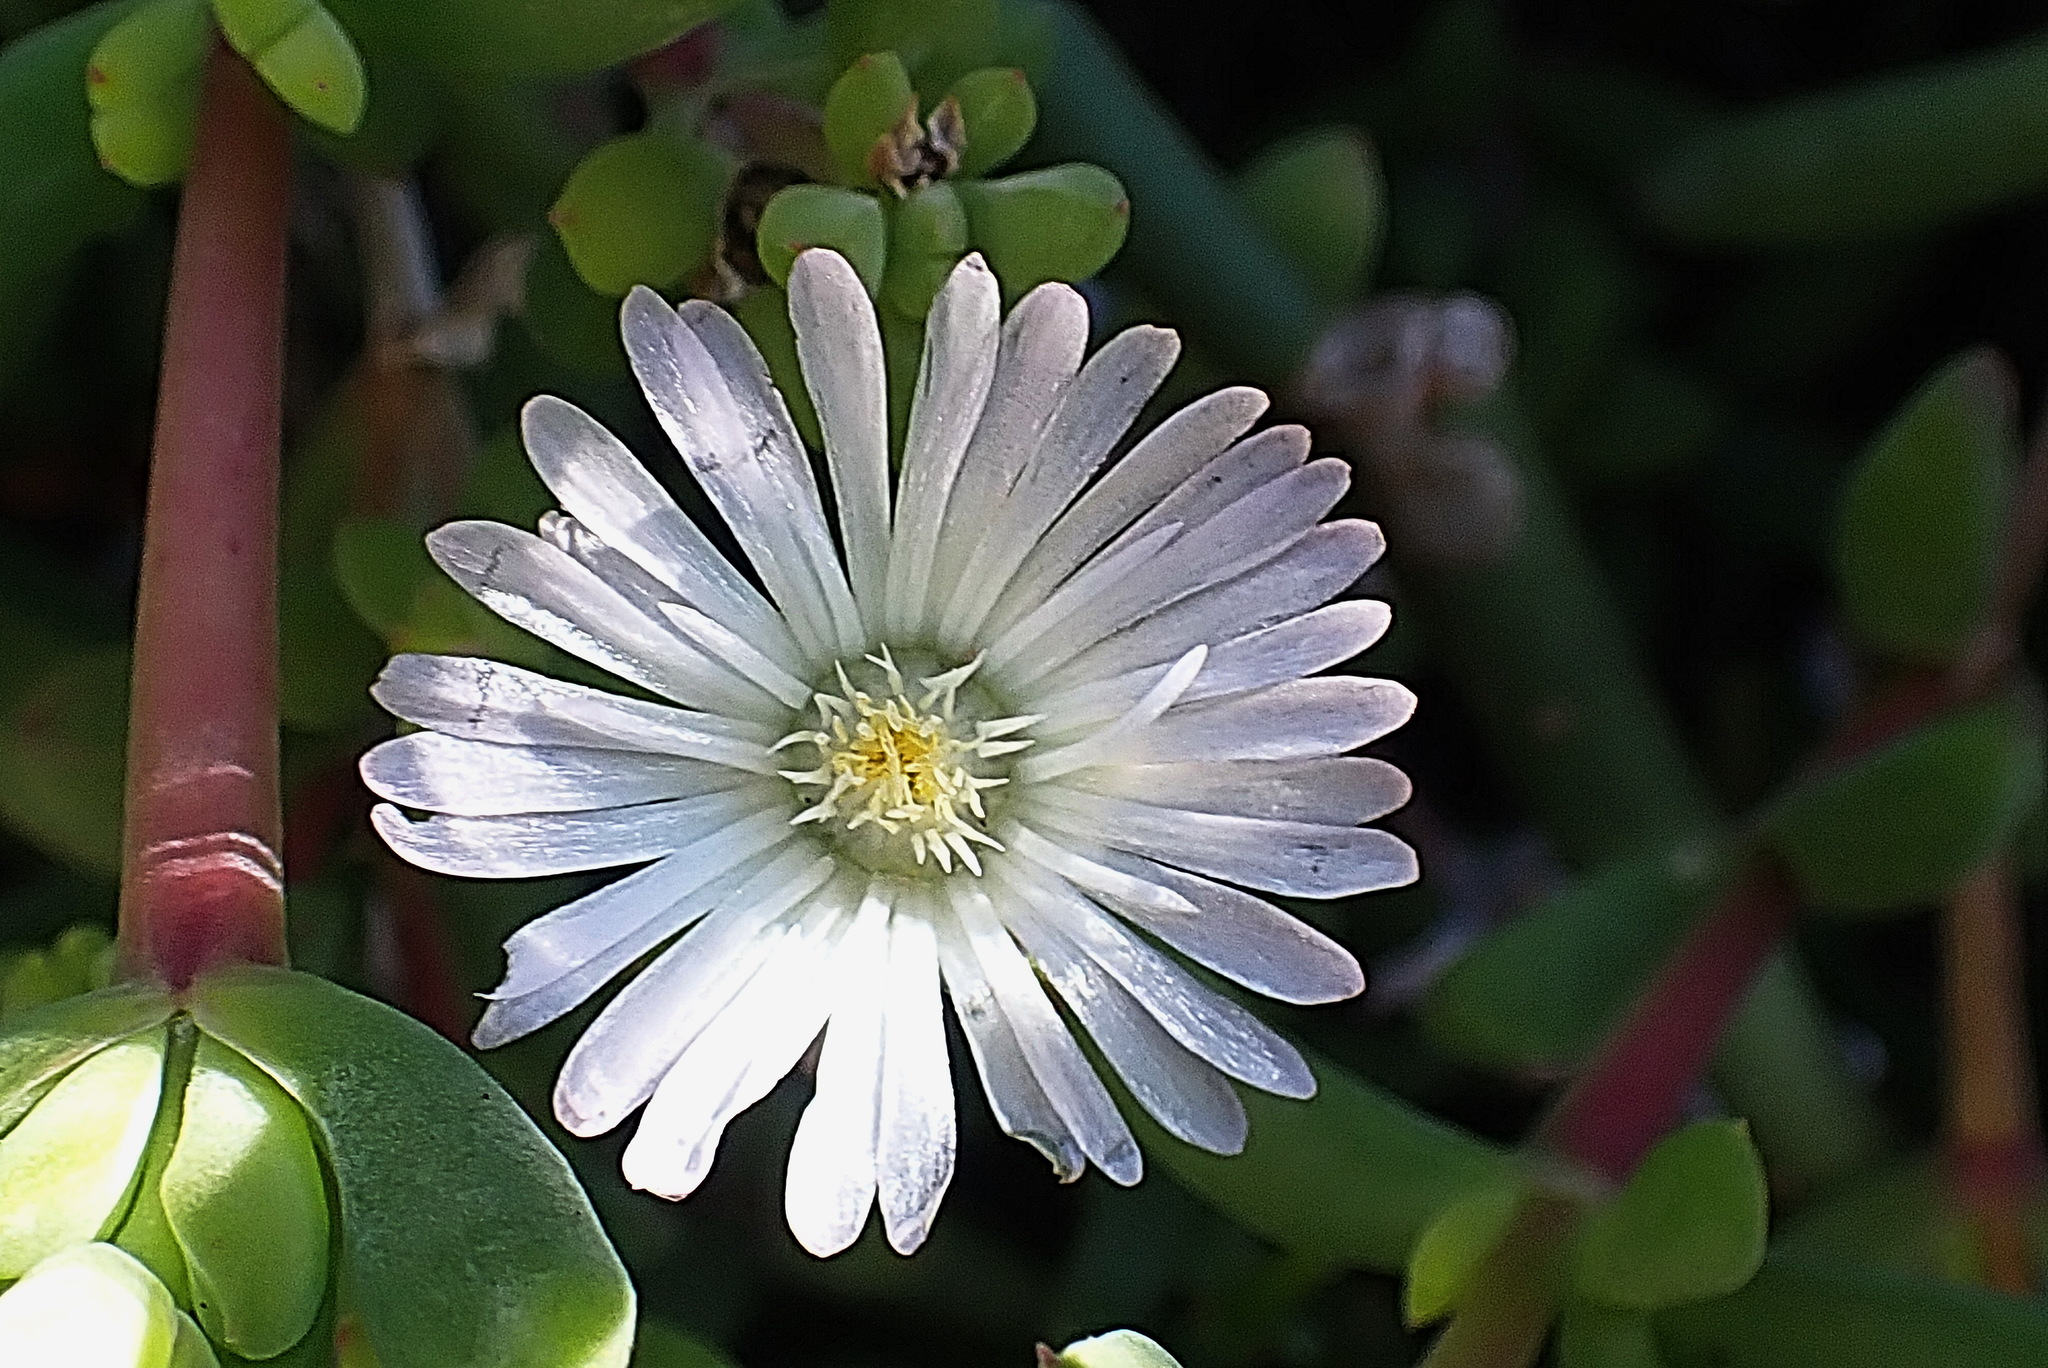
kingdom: Plantae
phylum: Tracheophyta
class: Magnoliopsida
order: Caryophyllales
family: Aizoaceae
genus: Delosperma
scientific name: Delosperma inconspicuum
